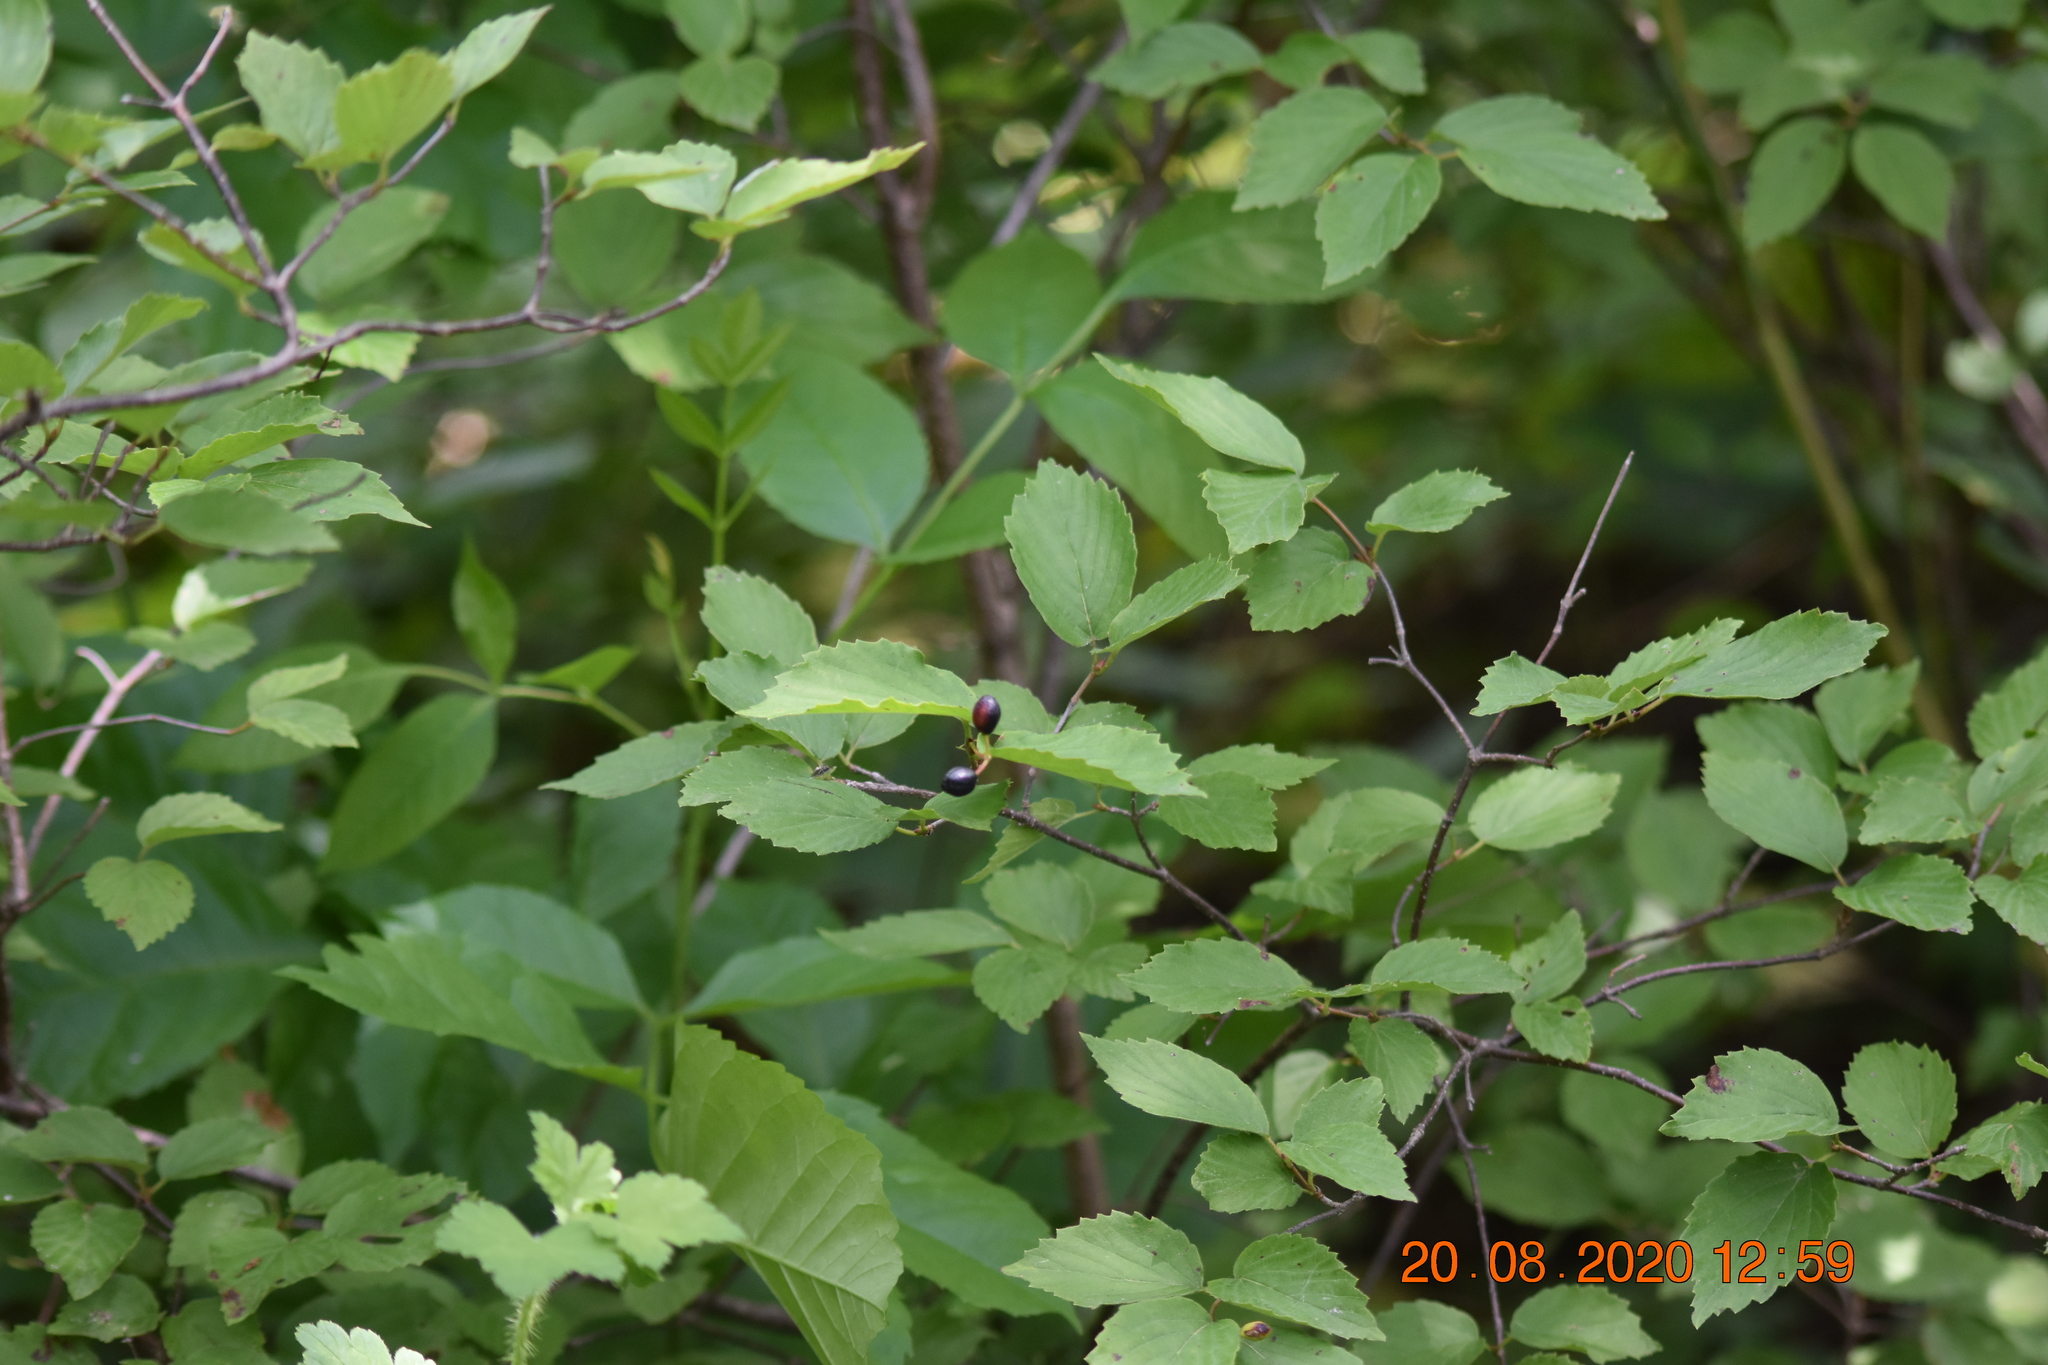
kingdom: Plantae
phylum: Tracheophyta
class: Magnoliopsida
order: Dipsacales
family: Viburnaceae
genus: Viburnum
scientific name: Viburnum rafinesqueanum
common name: Downy arrow-wood
